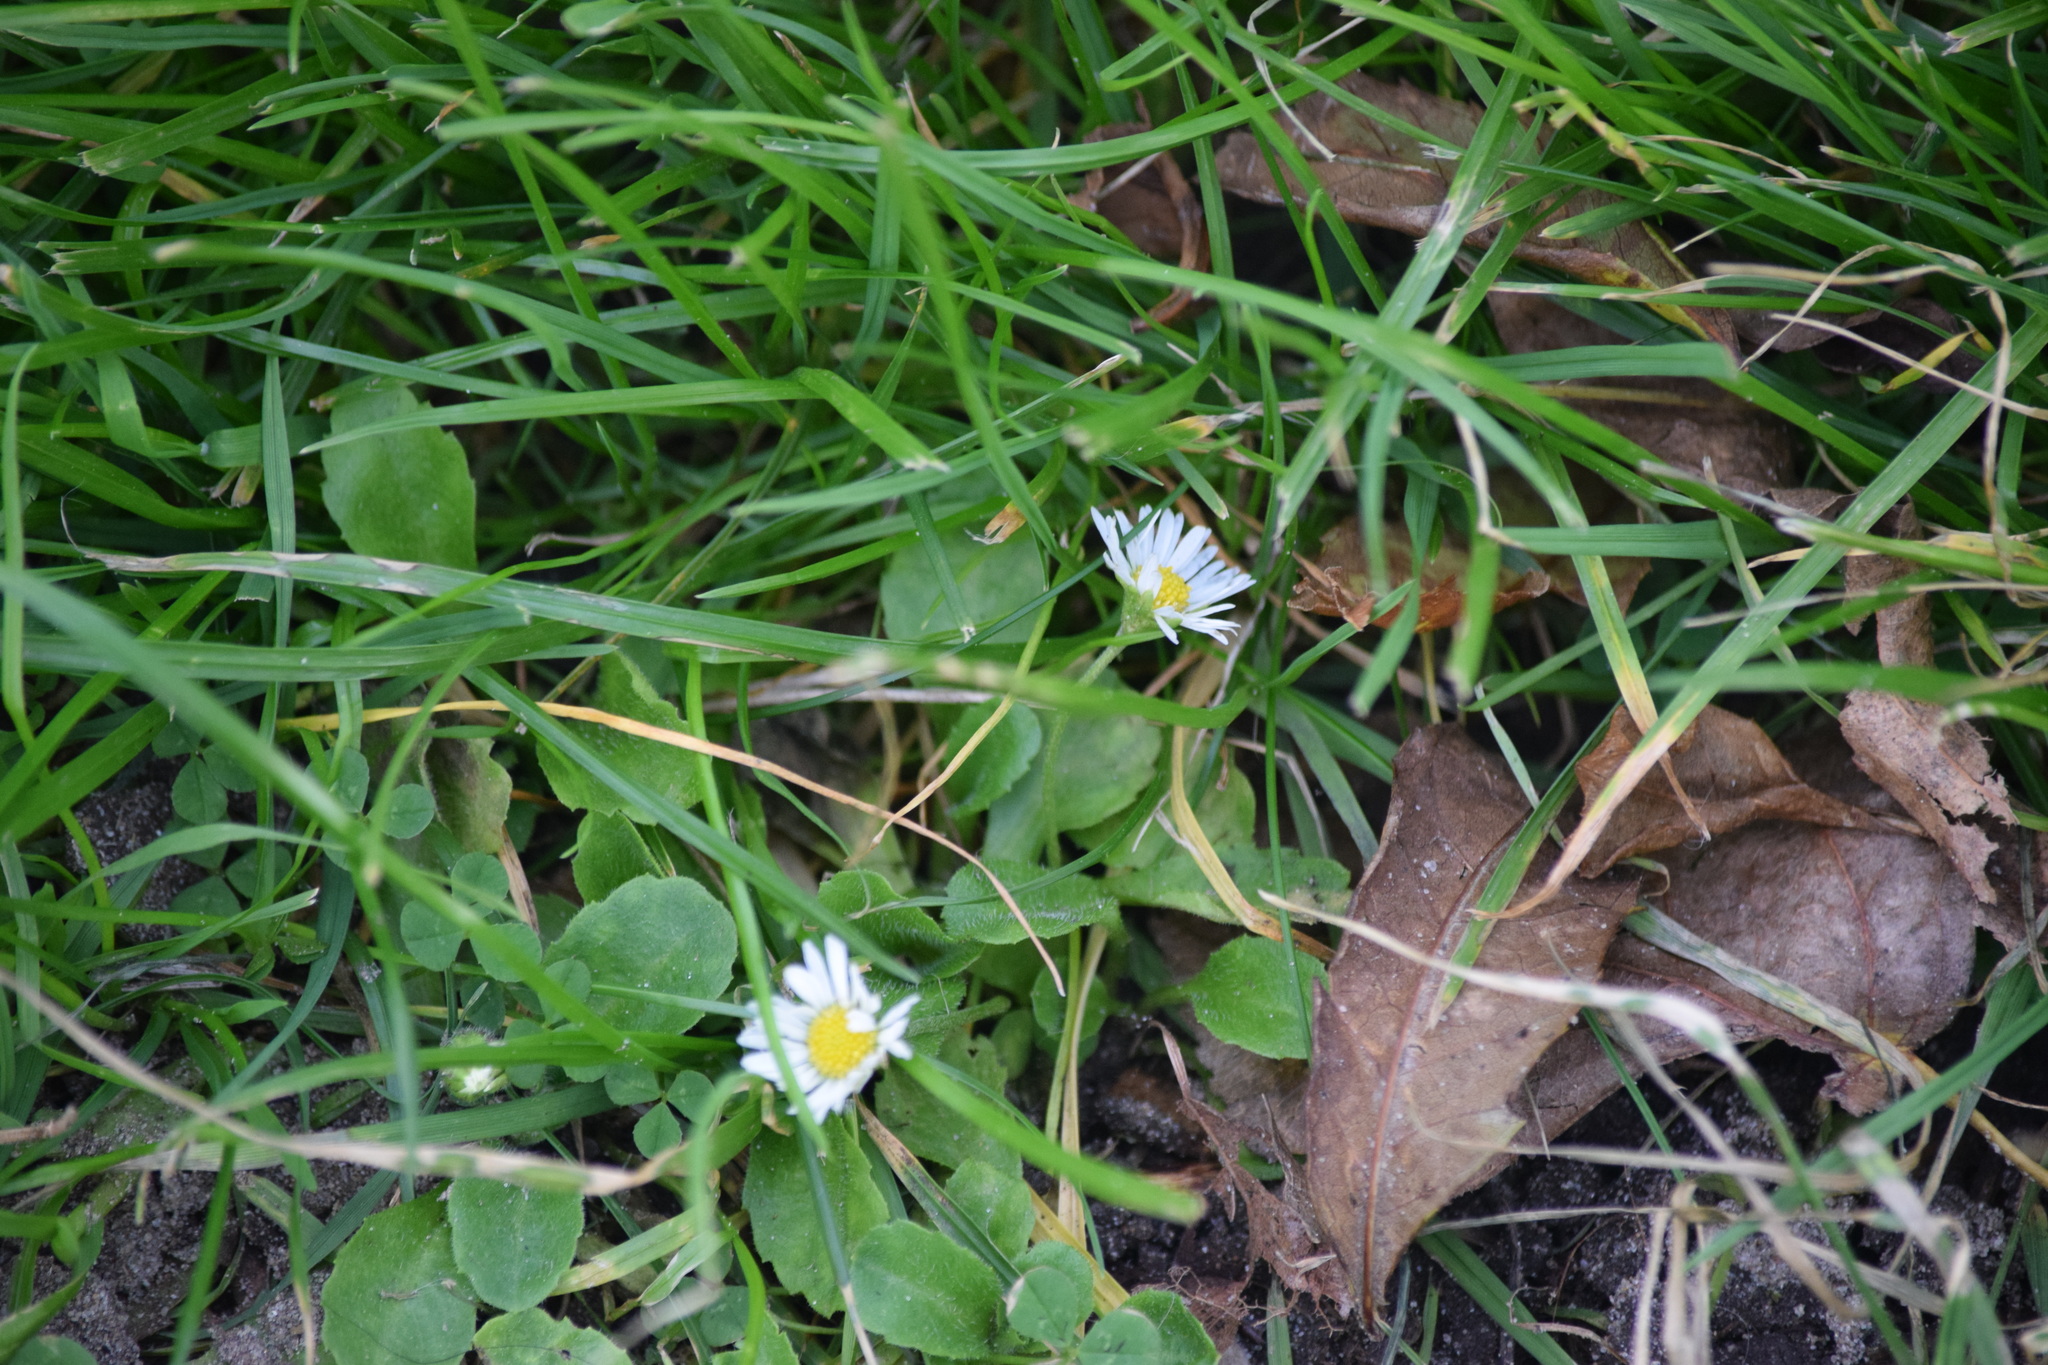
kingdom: Plantae
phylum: Tracheophyta
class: Magnoliopsida
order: Asterales
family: Asteraceae
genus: Bellis
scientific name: Bellis perennis
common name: Lawndaisy
